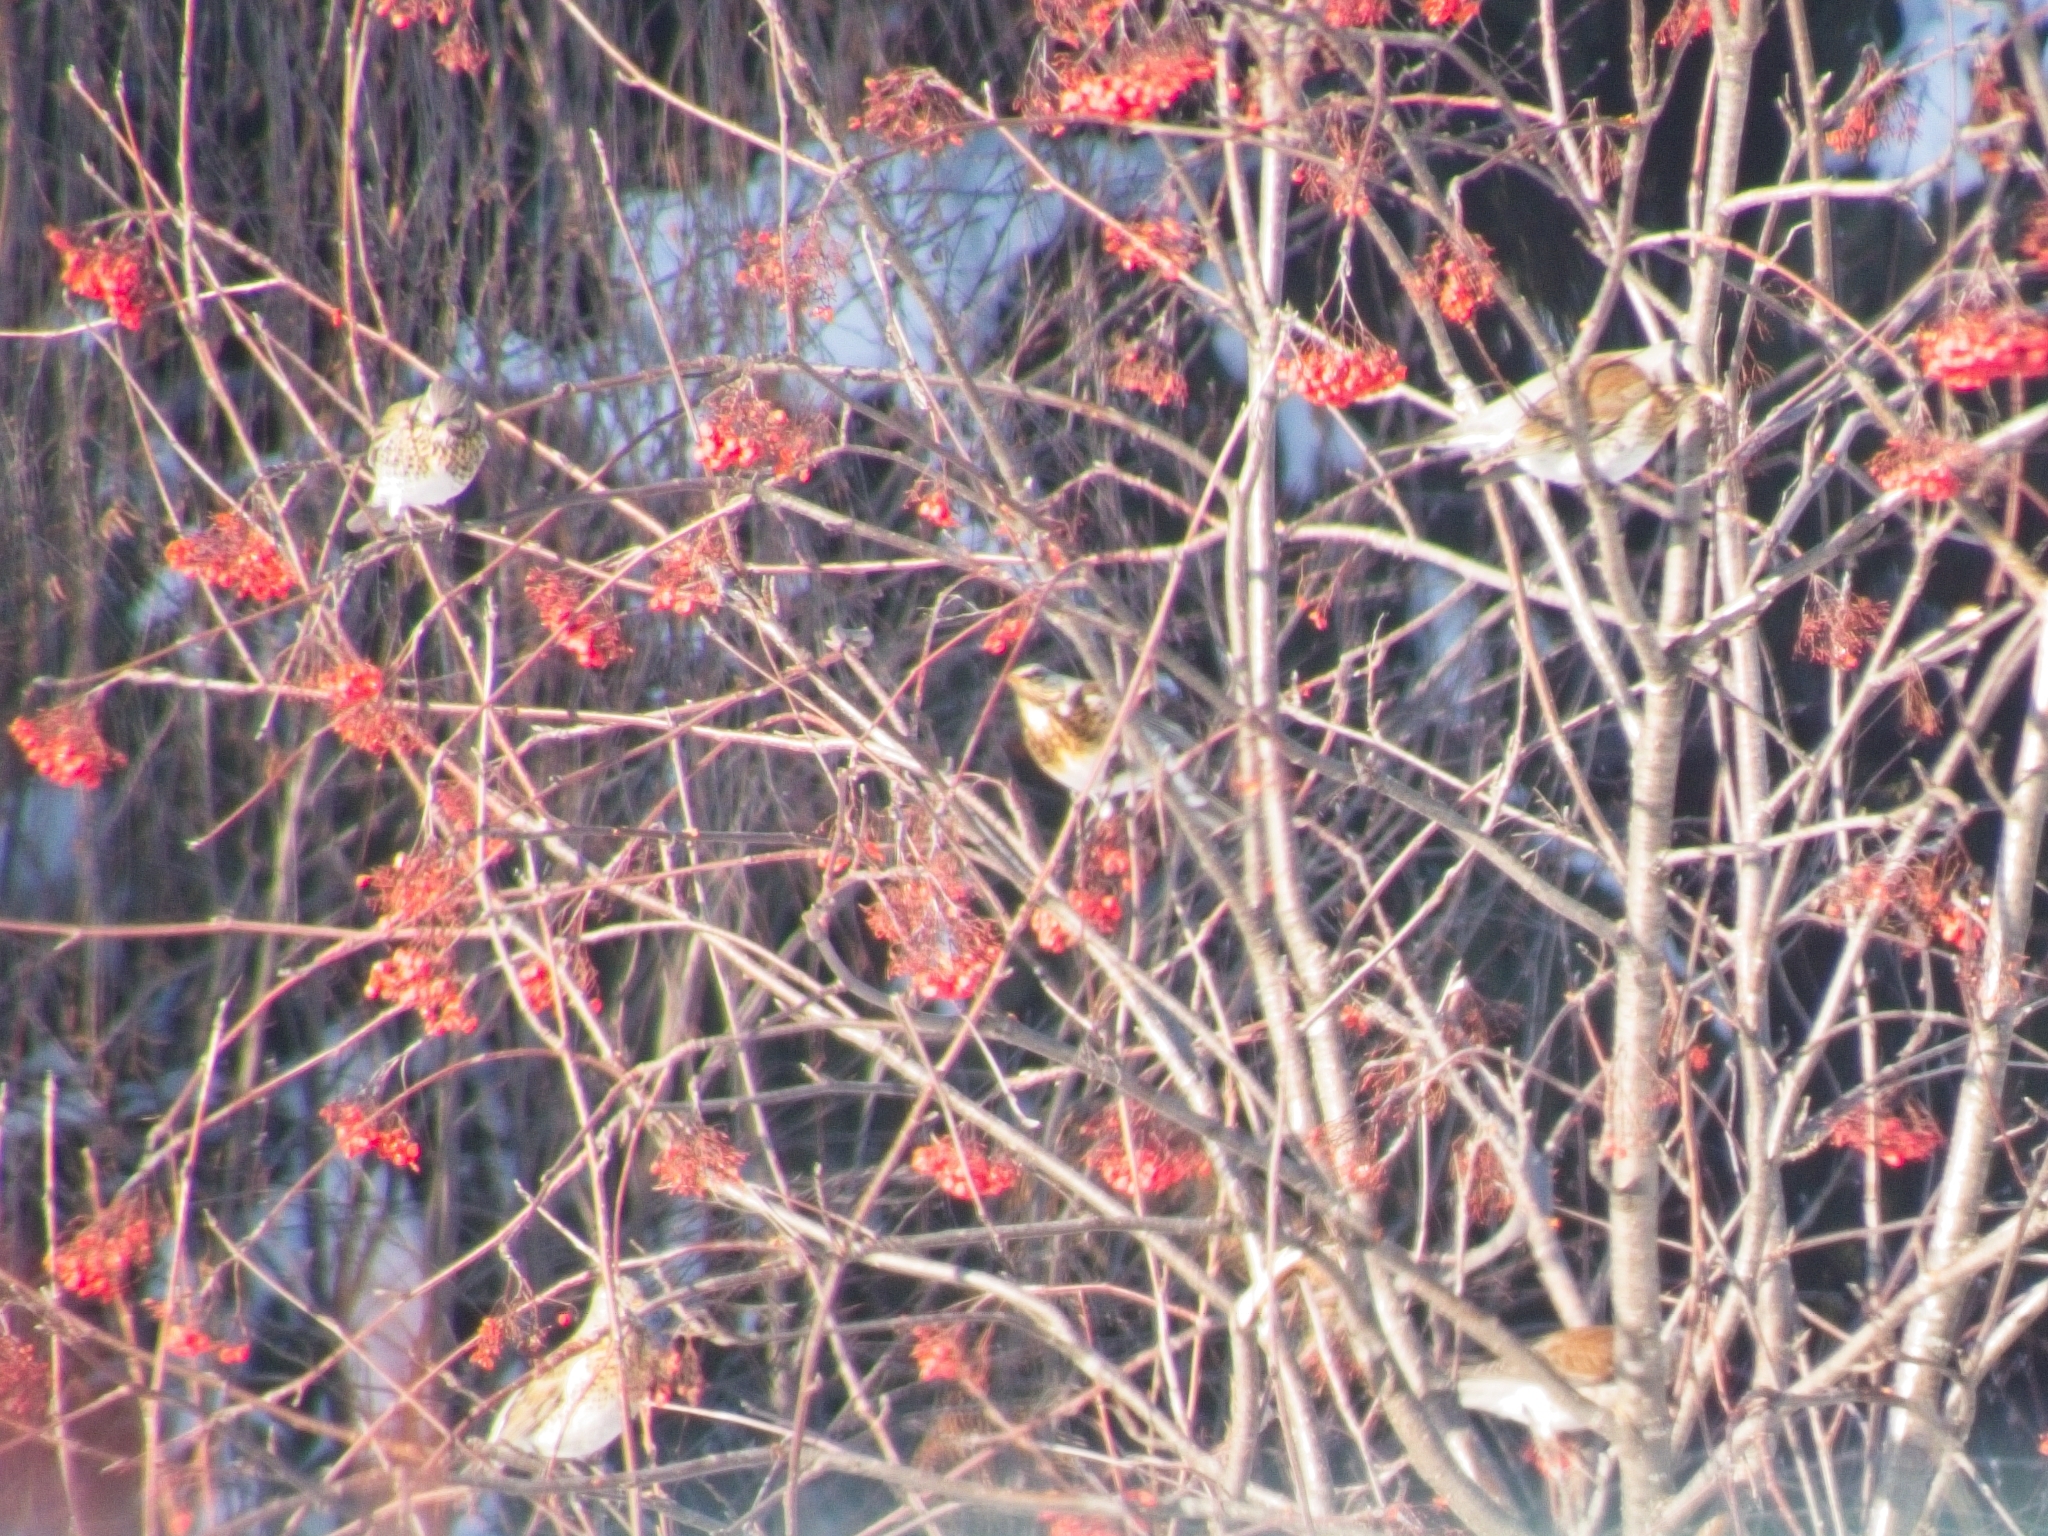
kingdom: Animalia
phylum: Chordata
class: Aves
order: Passeriformes
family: Turdidae
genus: Turdus
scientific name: Turdus pilaris
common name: Fieldfare
